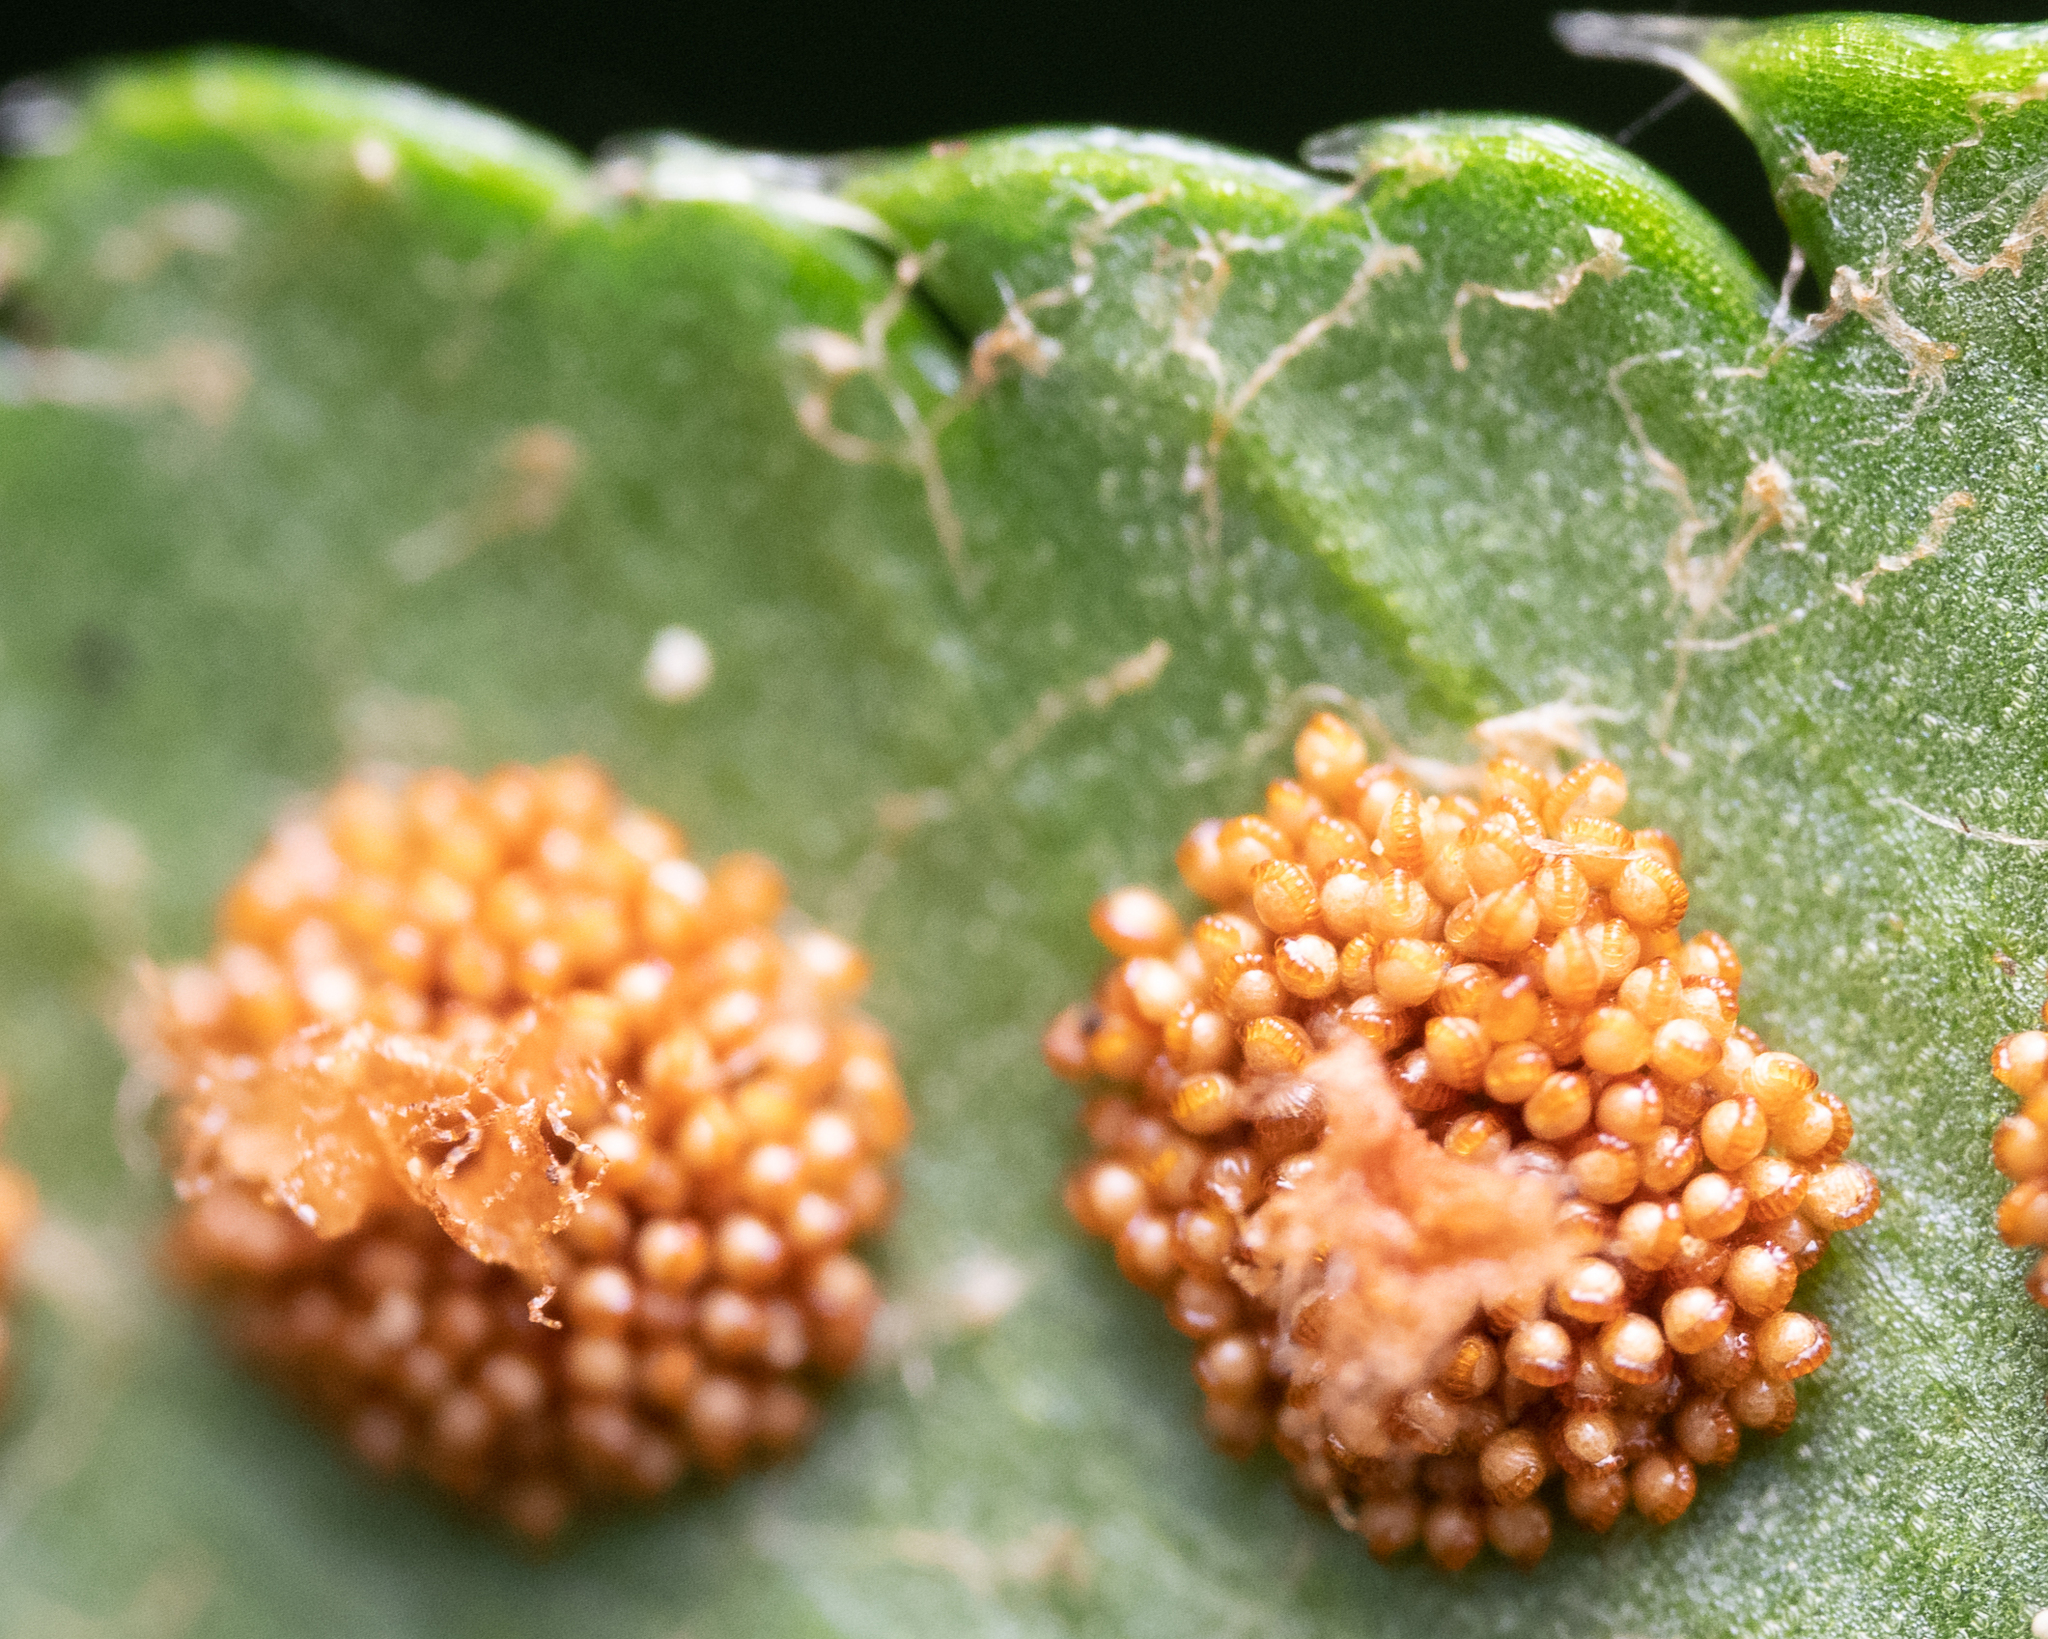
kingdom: Plantae
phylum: Tracheophyta
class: Polypodiopsida
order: Polypodiales
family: Dryopteridaceae
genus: Polystichum
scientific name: Polystichum munitum
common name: Western sword-fern
